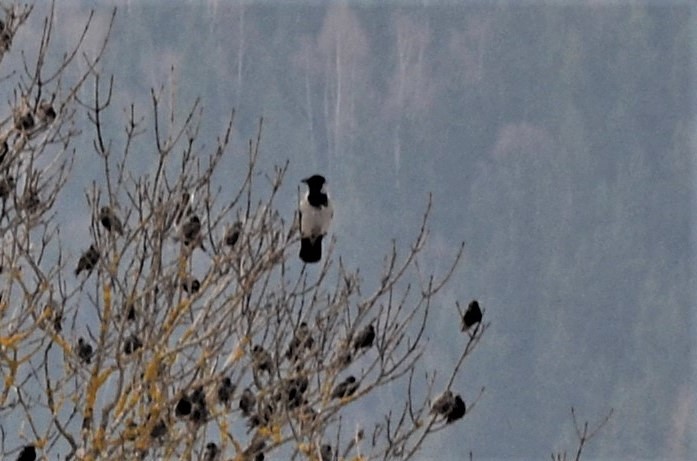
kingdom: Animalia
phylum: Chordata
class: Aves
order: Passeriformes
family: Corvidae
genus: Corvus
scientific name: Corvus cornix
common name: Hooded crow
